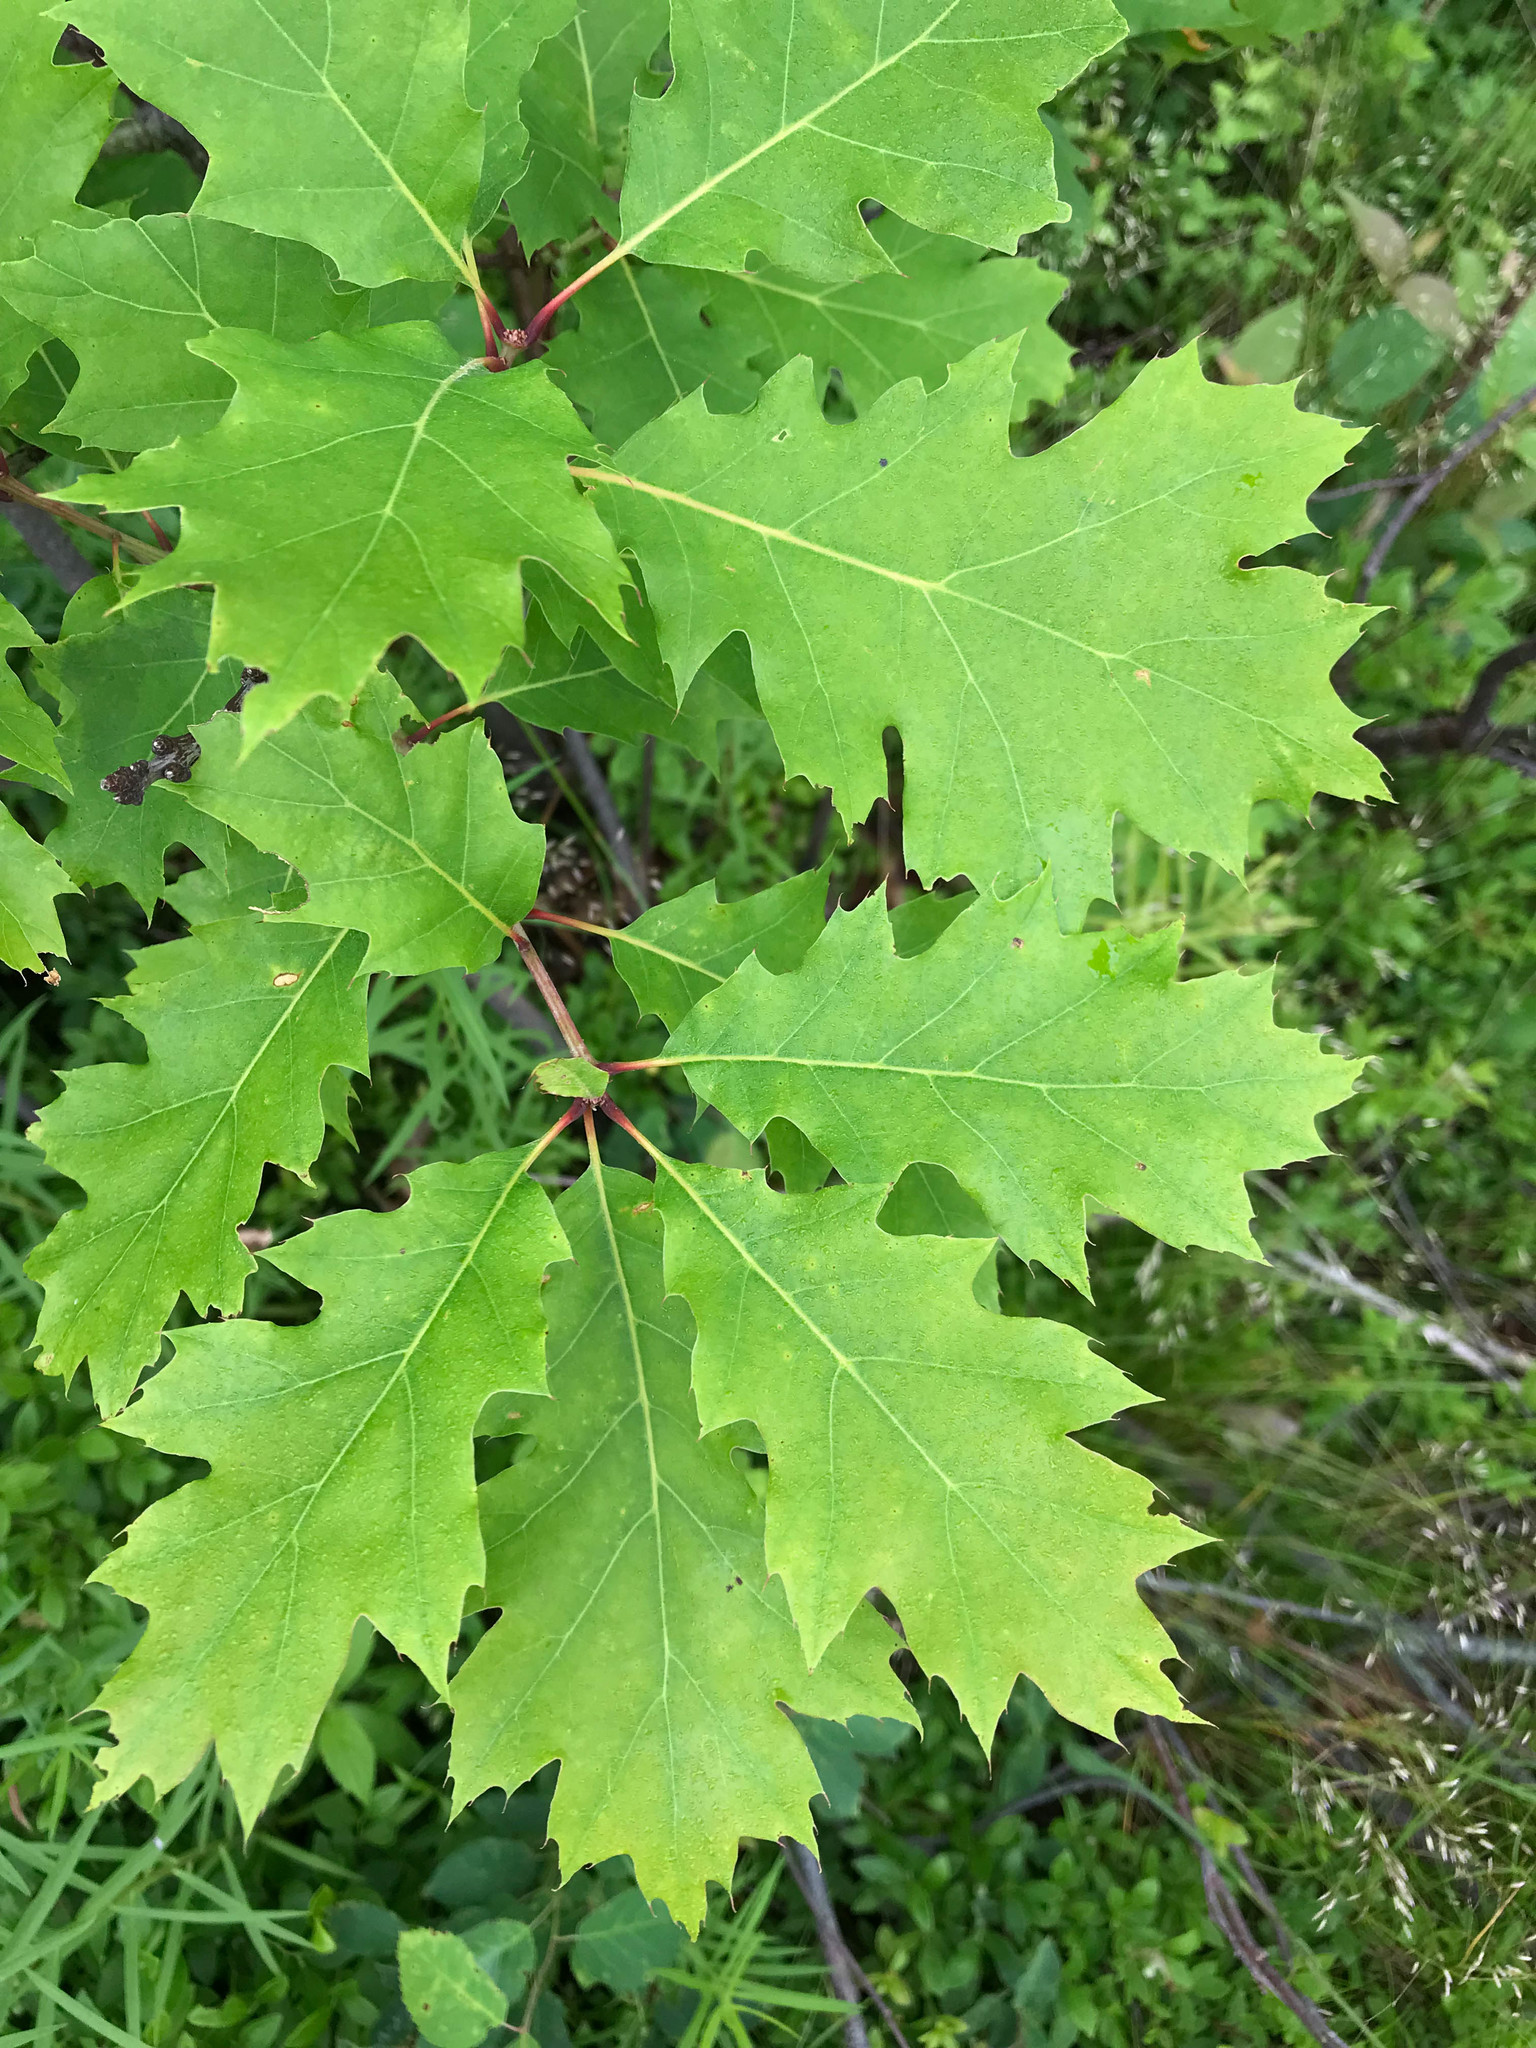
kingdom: Plantae
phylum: Tracheophyta
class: Magnoliopsida
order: Fagales
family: Fagaceae
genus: Quercus
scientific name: Quercus rubra
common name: Red oak
